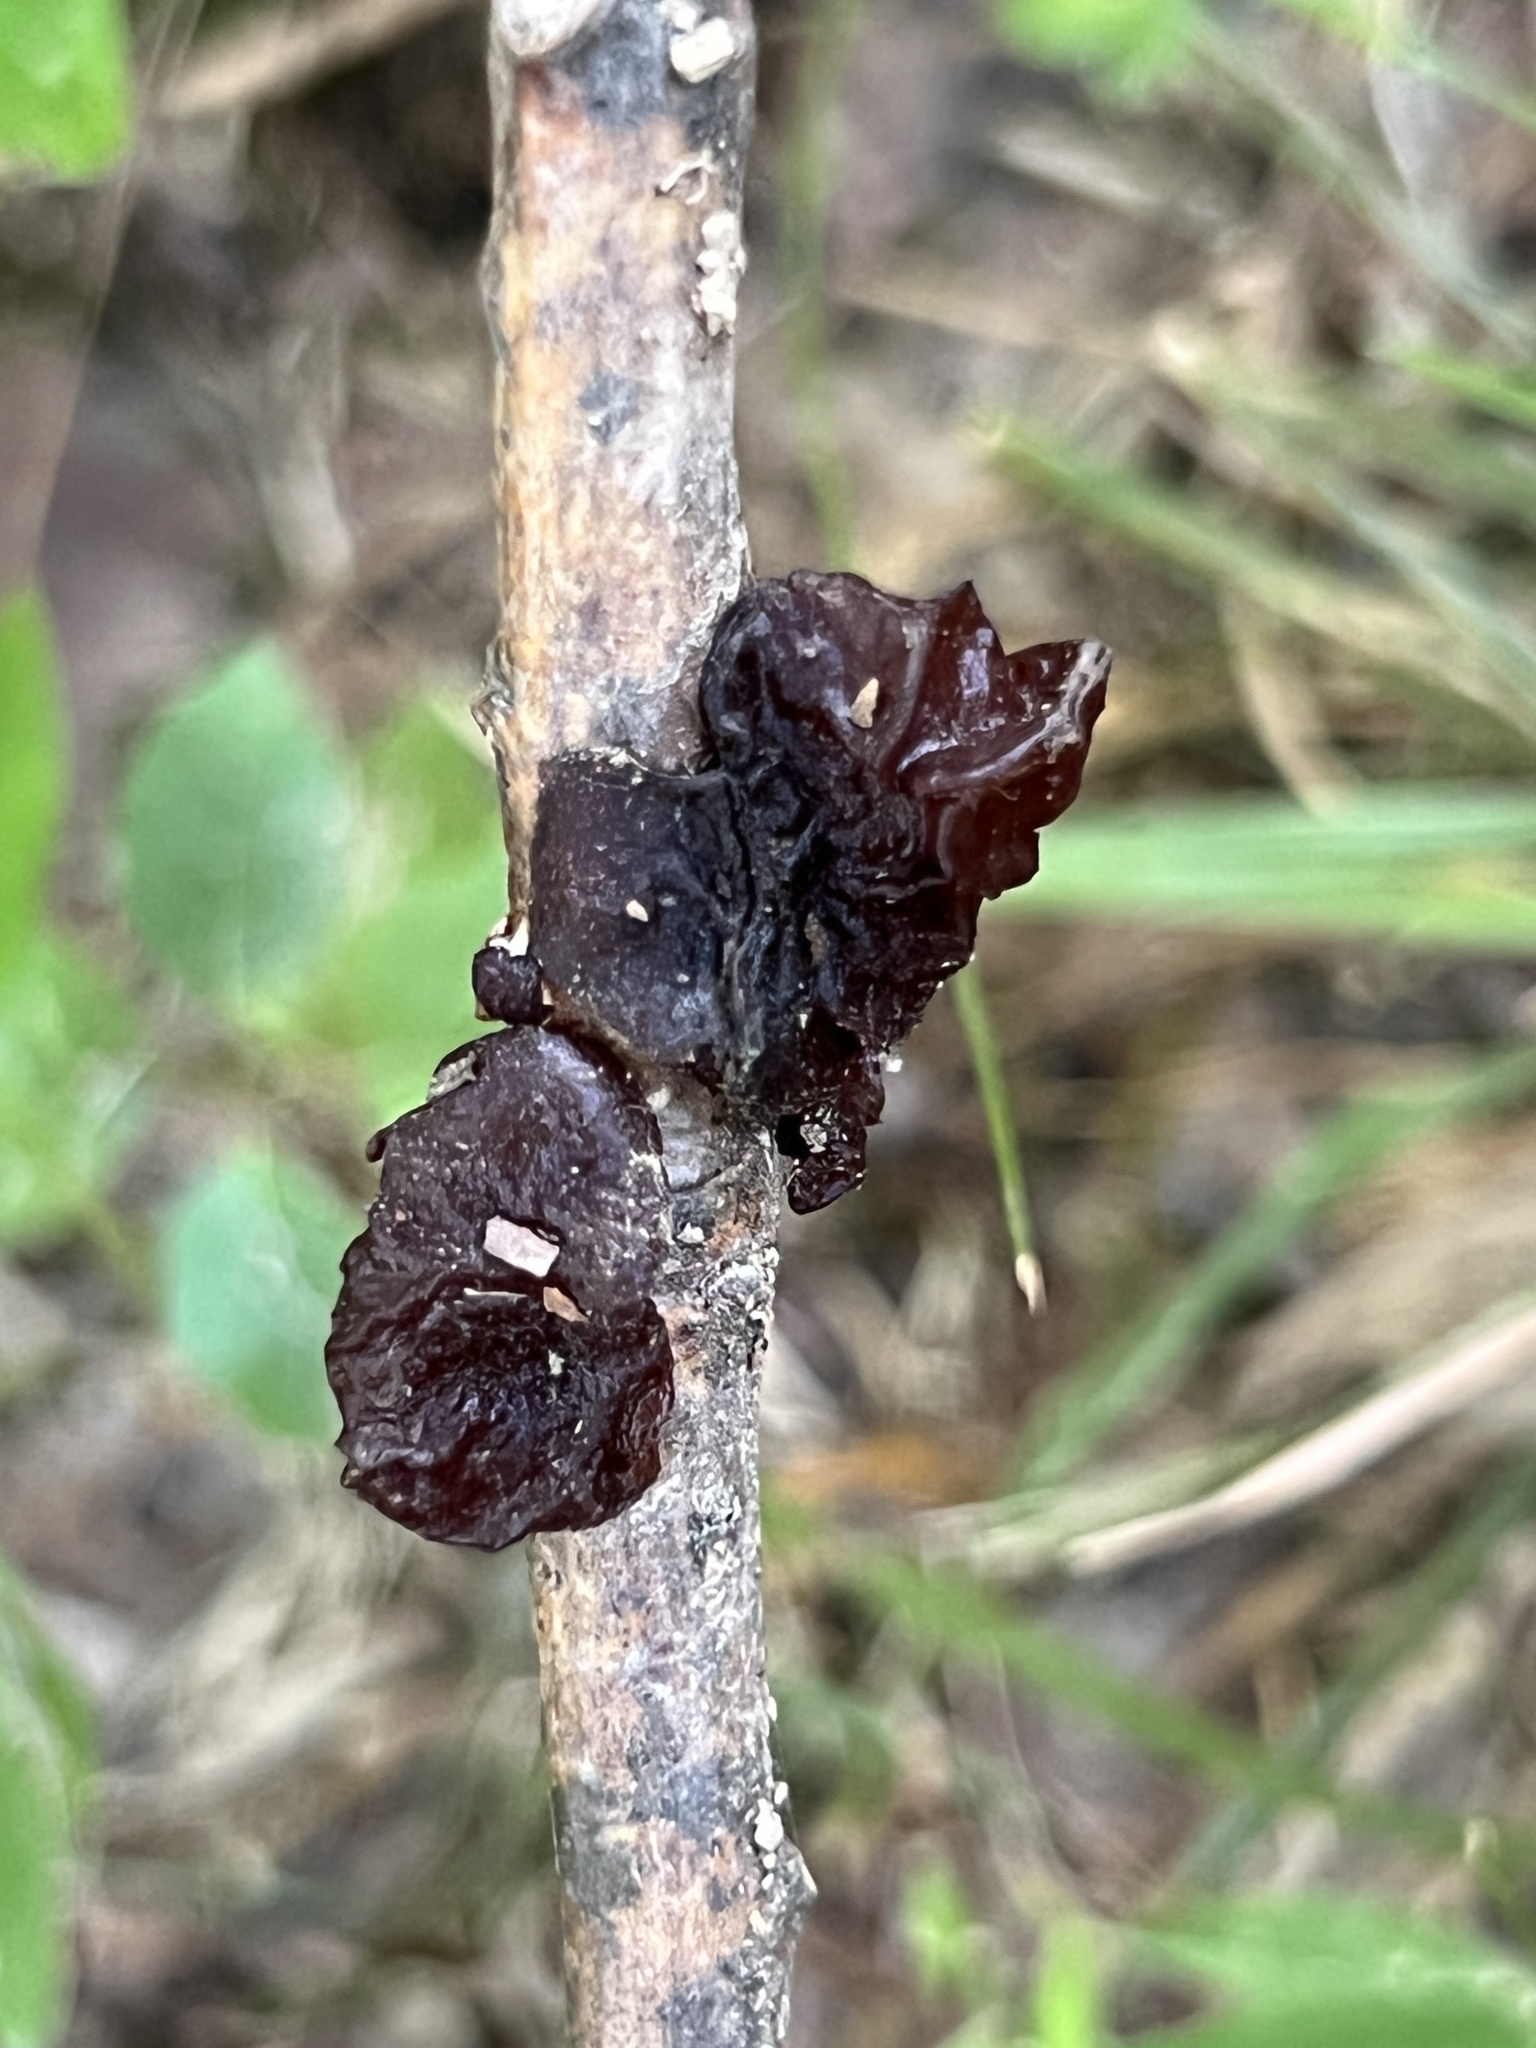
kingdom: Fungi
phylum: Basidiomycota
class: Agaricomycetes
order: Auriculariales
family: Auriculariaceae
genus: Exidia
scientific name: Exidia
